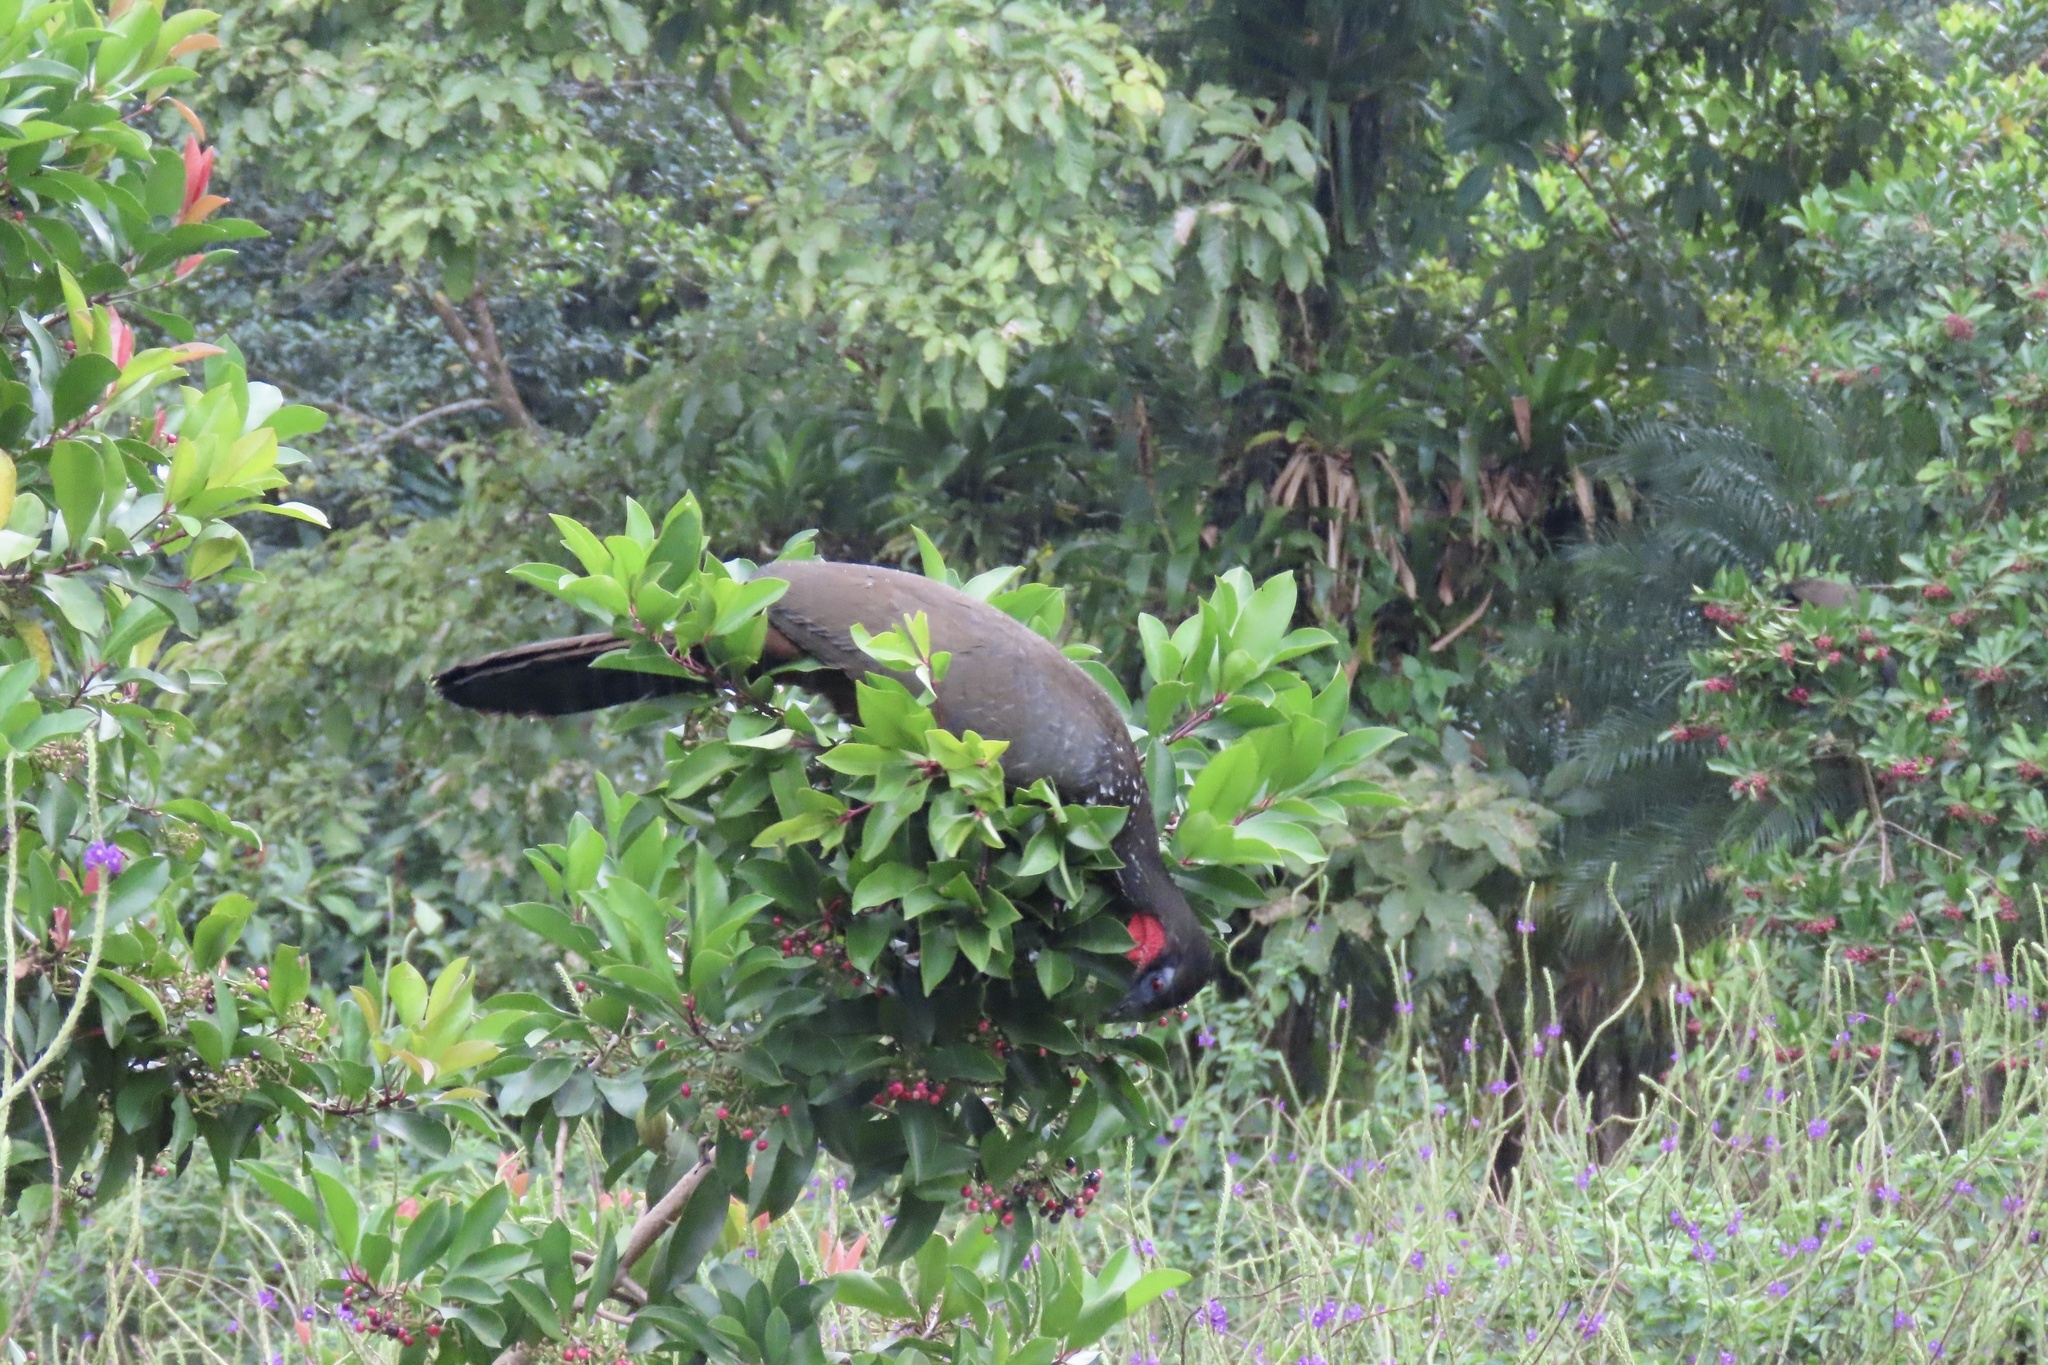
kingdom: Animalia
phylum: Chordata
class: Aves
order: Galliformes
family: Cracidae
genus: Penelope
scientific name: Penelope purpurascens
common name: Crested guan
